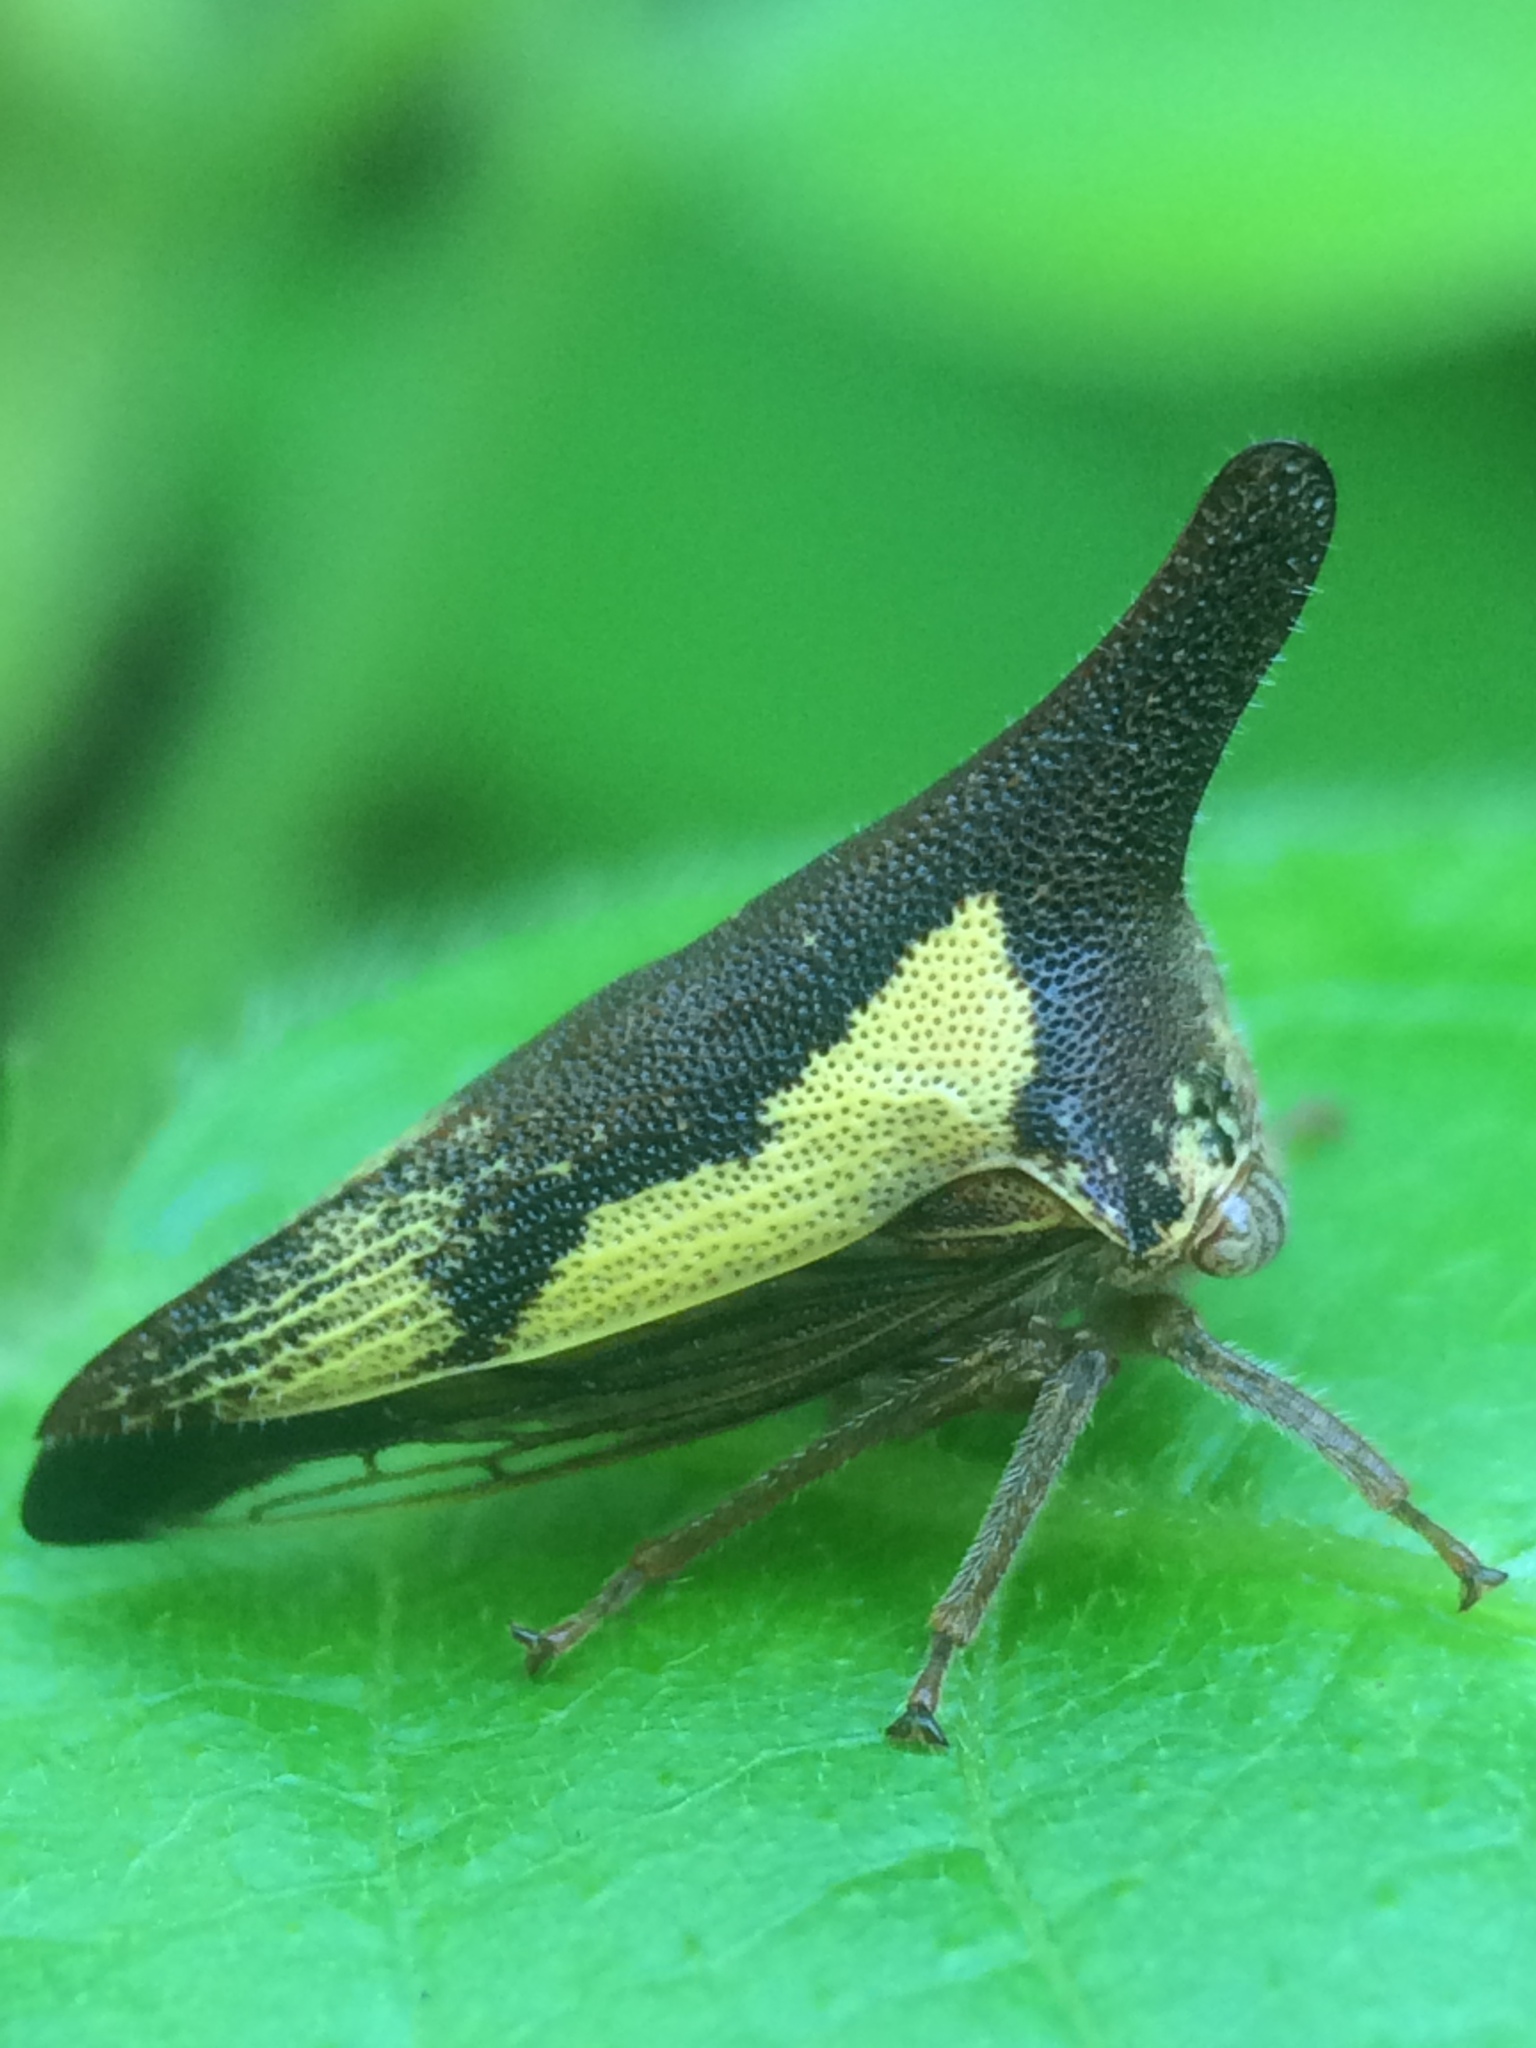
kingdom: Animalia
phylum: Arthropoda
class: Insecta
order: Hemiptera
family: Membracidae
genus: Thelia
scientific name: Thelia bimaculata
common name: Locust treehopper
